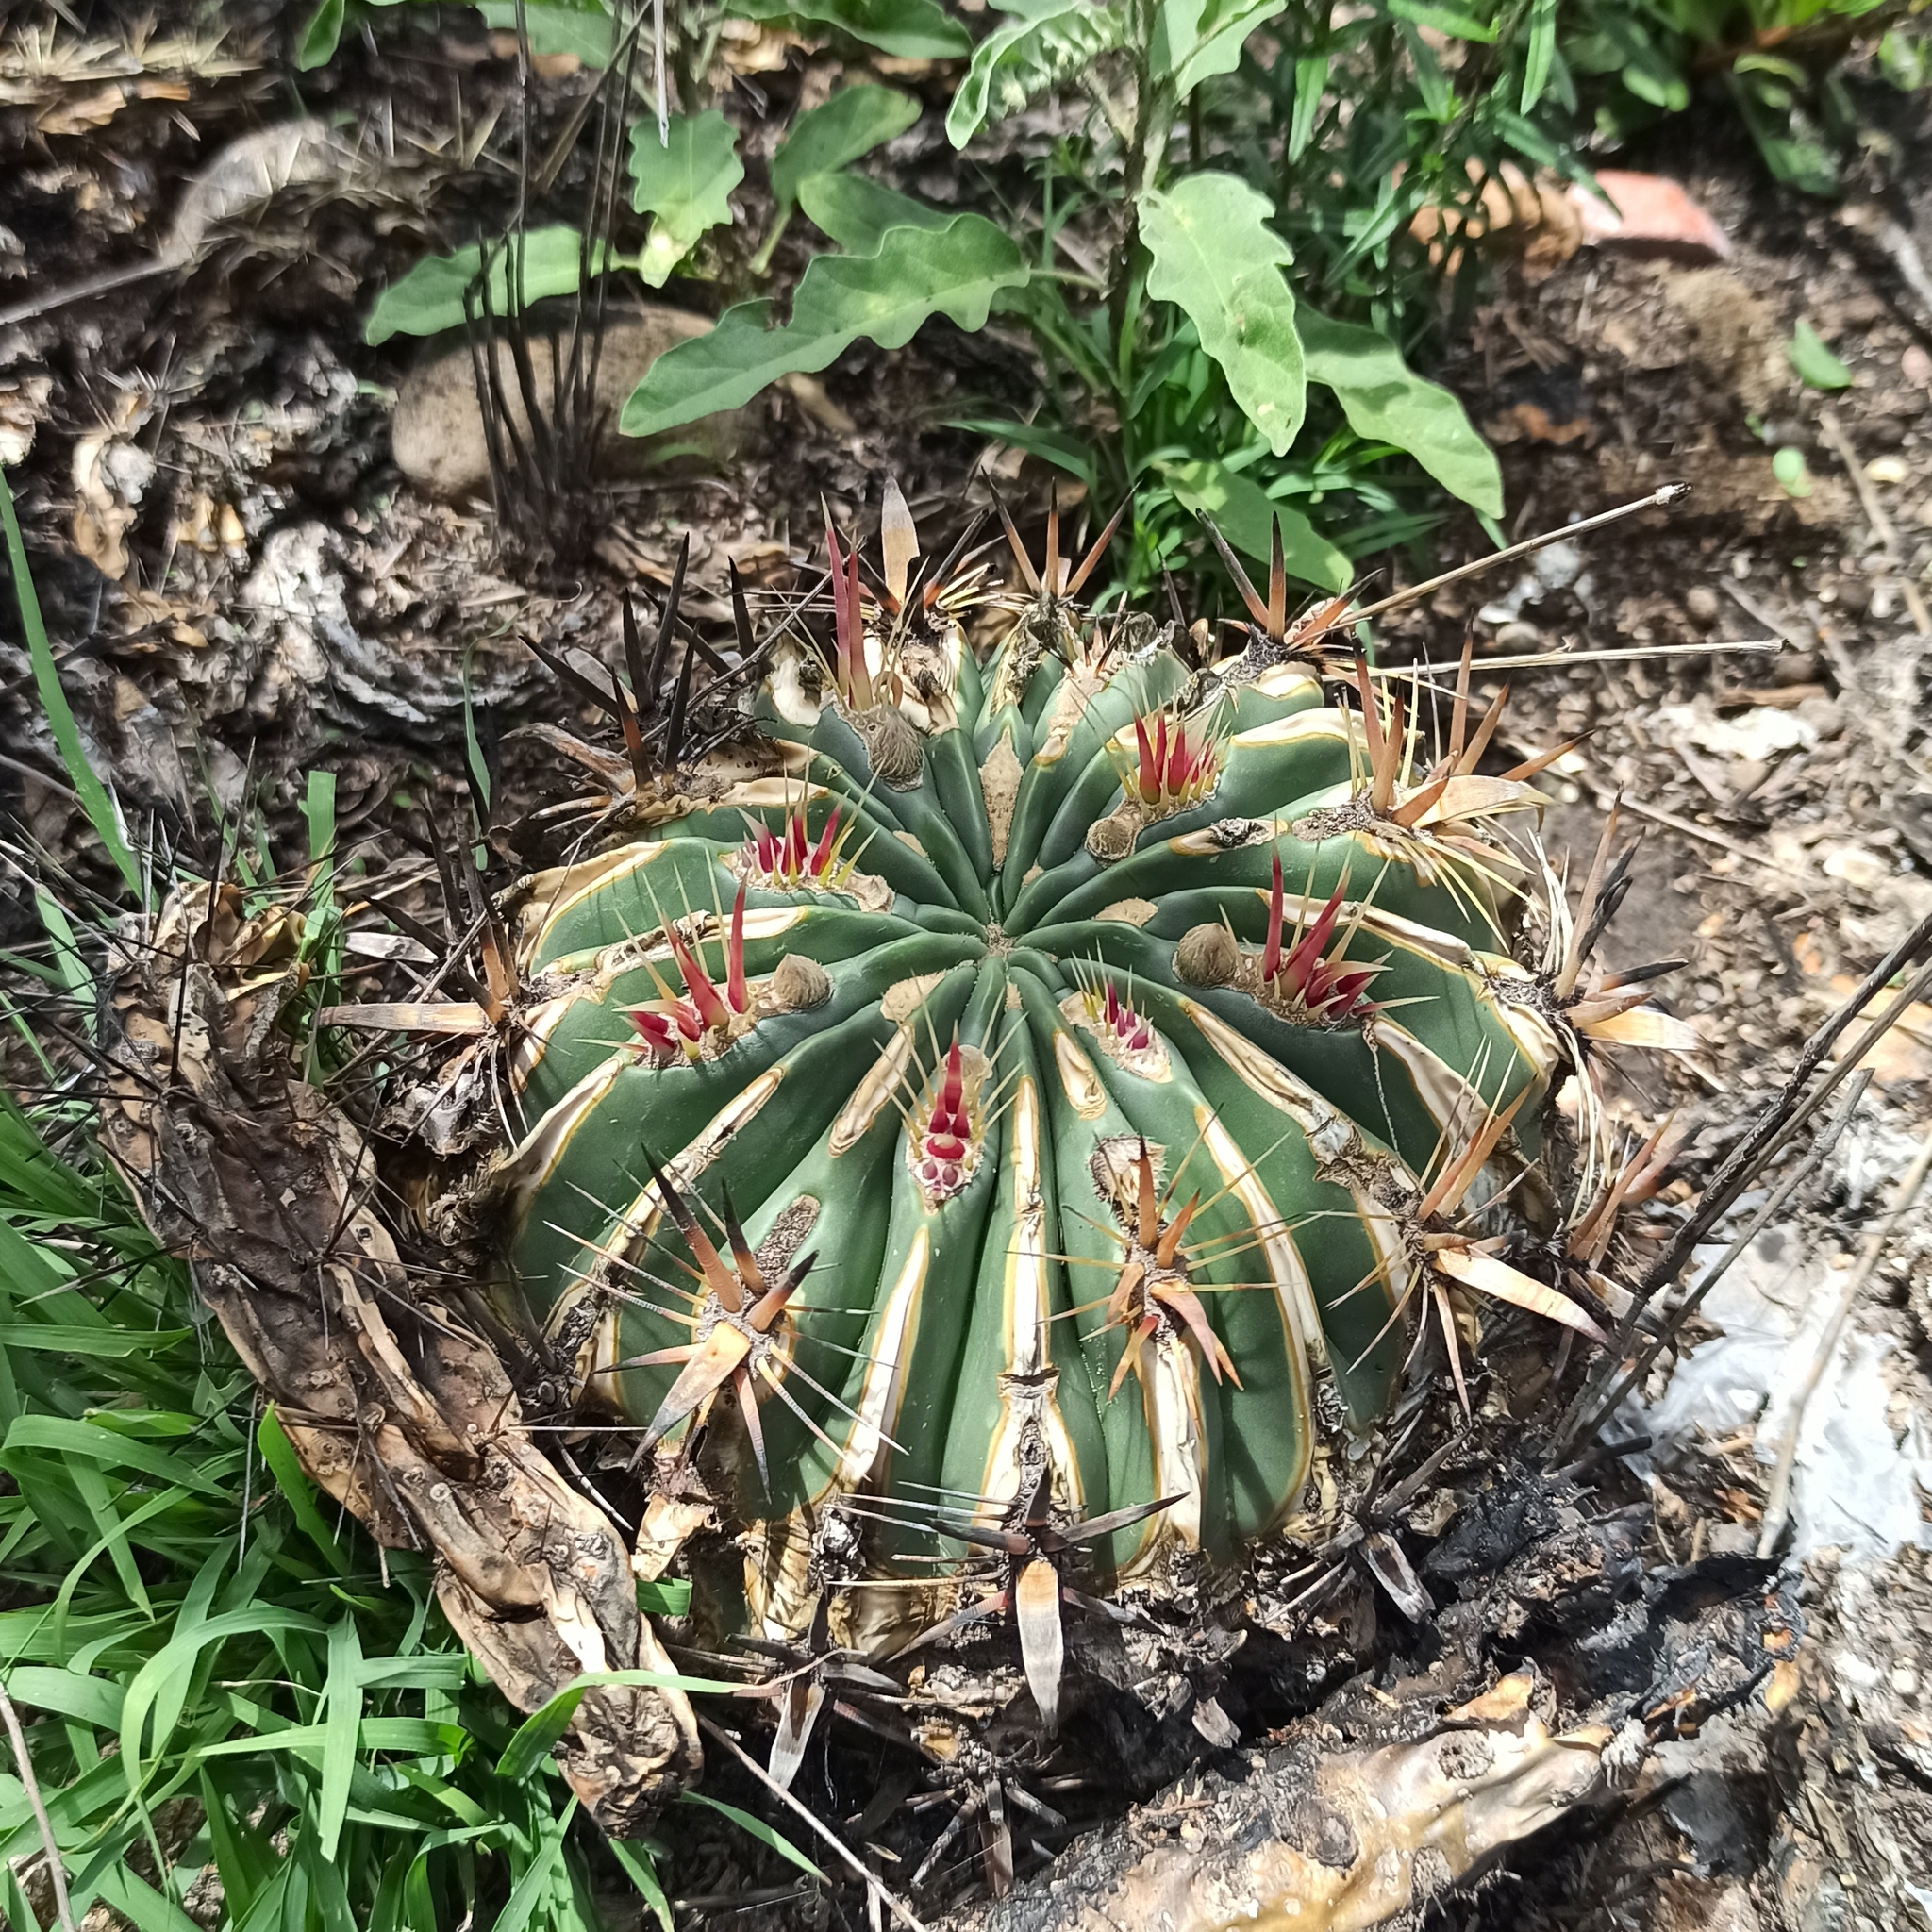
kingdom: Plantae
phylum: Tracheophyta
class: Magnoliopsida
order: Caryophyllales
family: Cactaceae
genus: Ferocactus
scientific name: Ferocactus latispinus
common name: Devil's-tongue cactus
